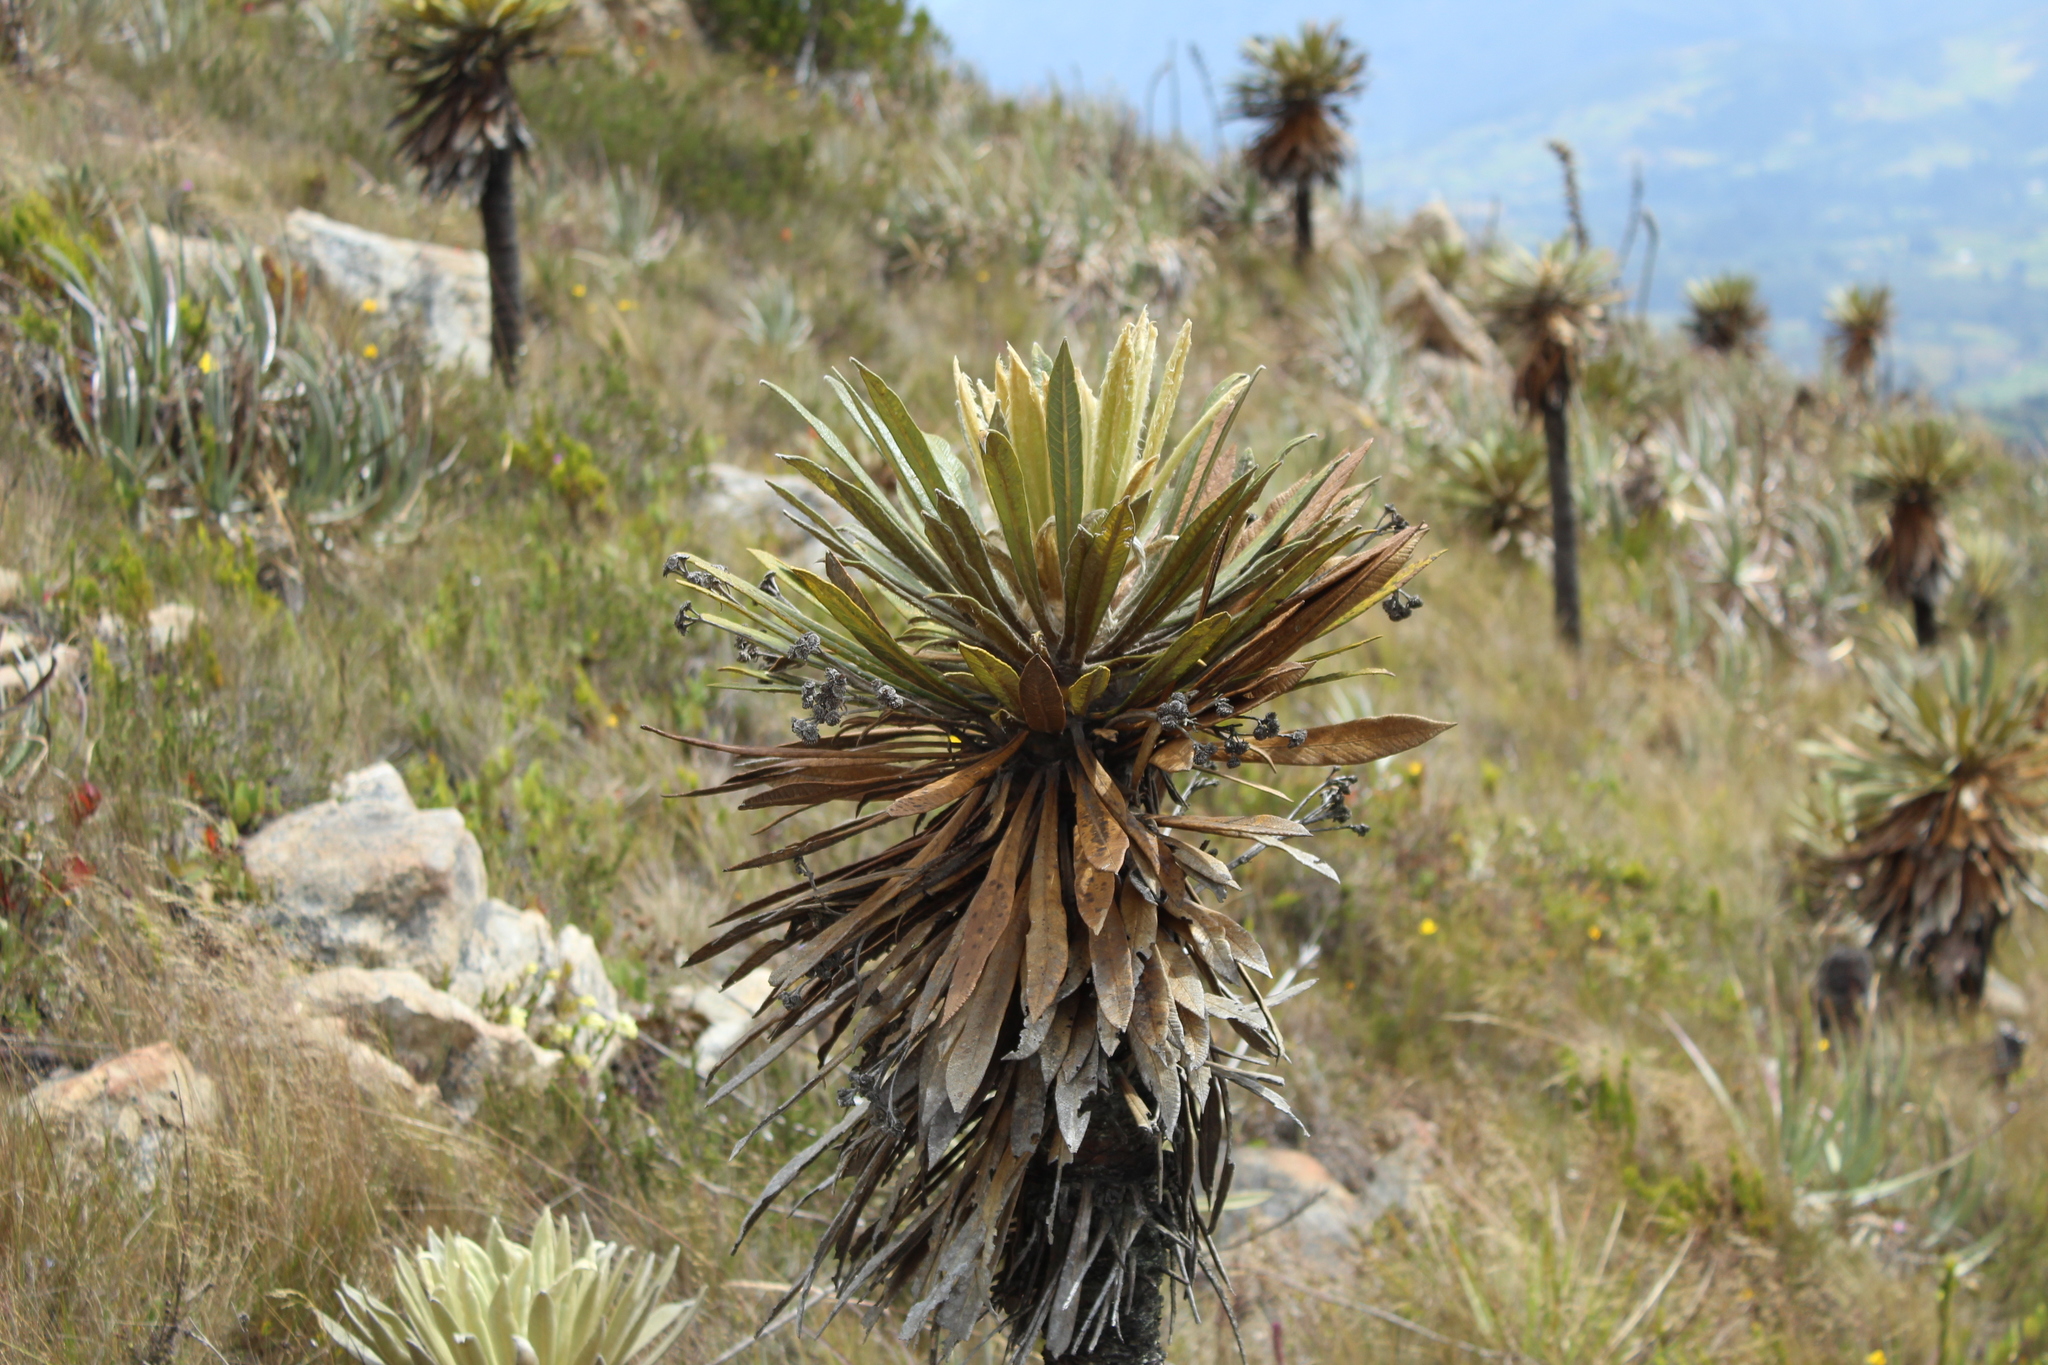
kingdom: Plantae
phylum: Tracheophyta
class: Magnoliopsida
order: Asterales
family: Asteraceae
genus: Espeletia
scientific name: Espeletia guacharaca
